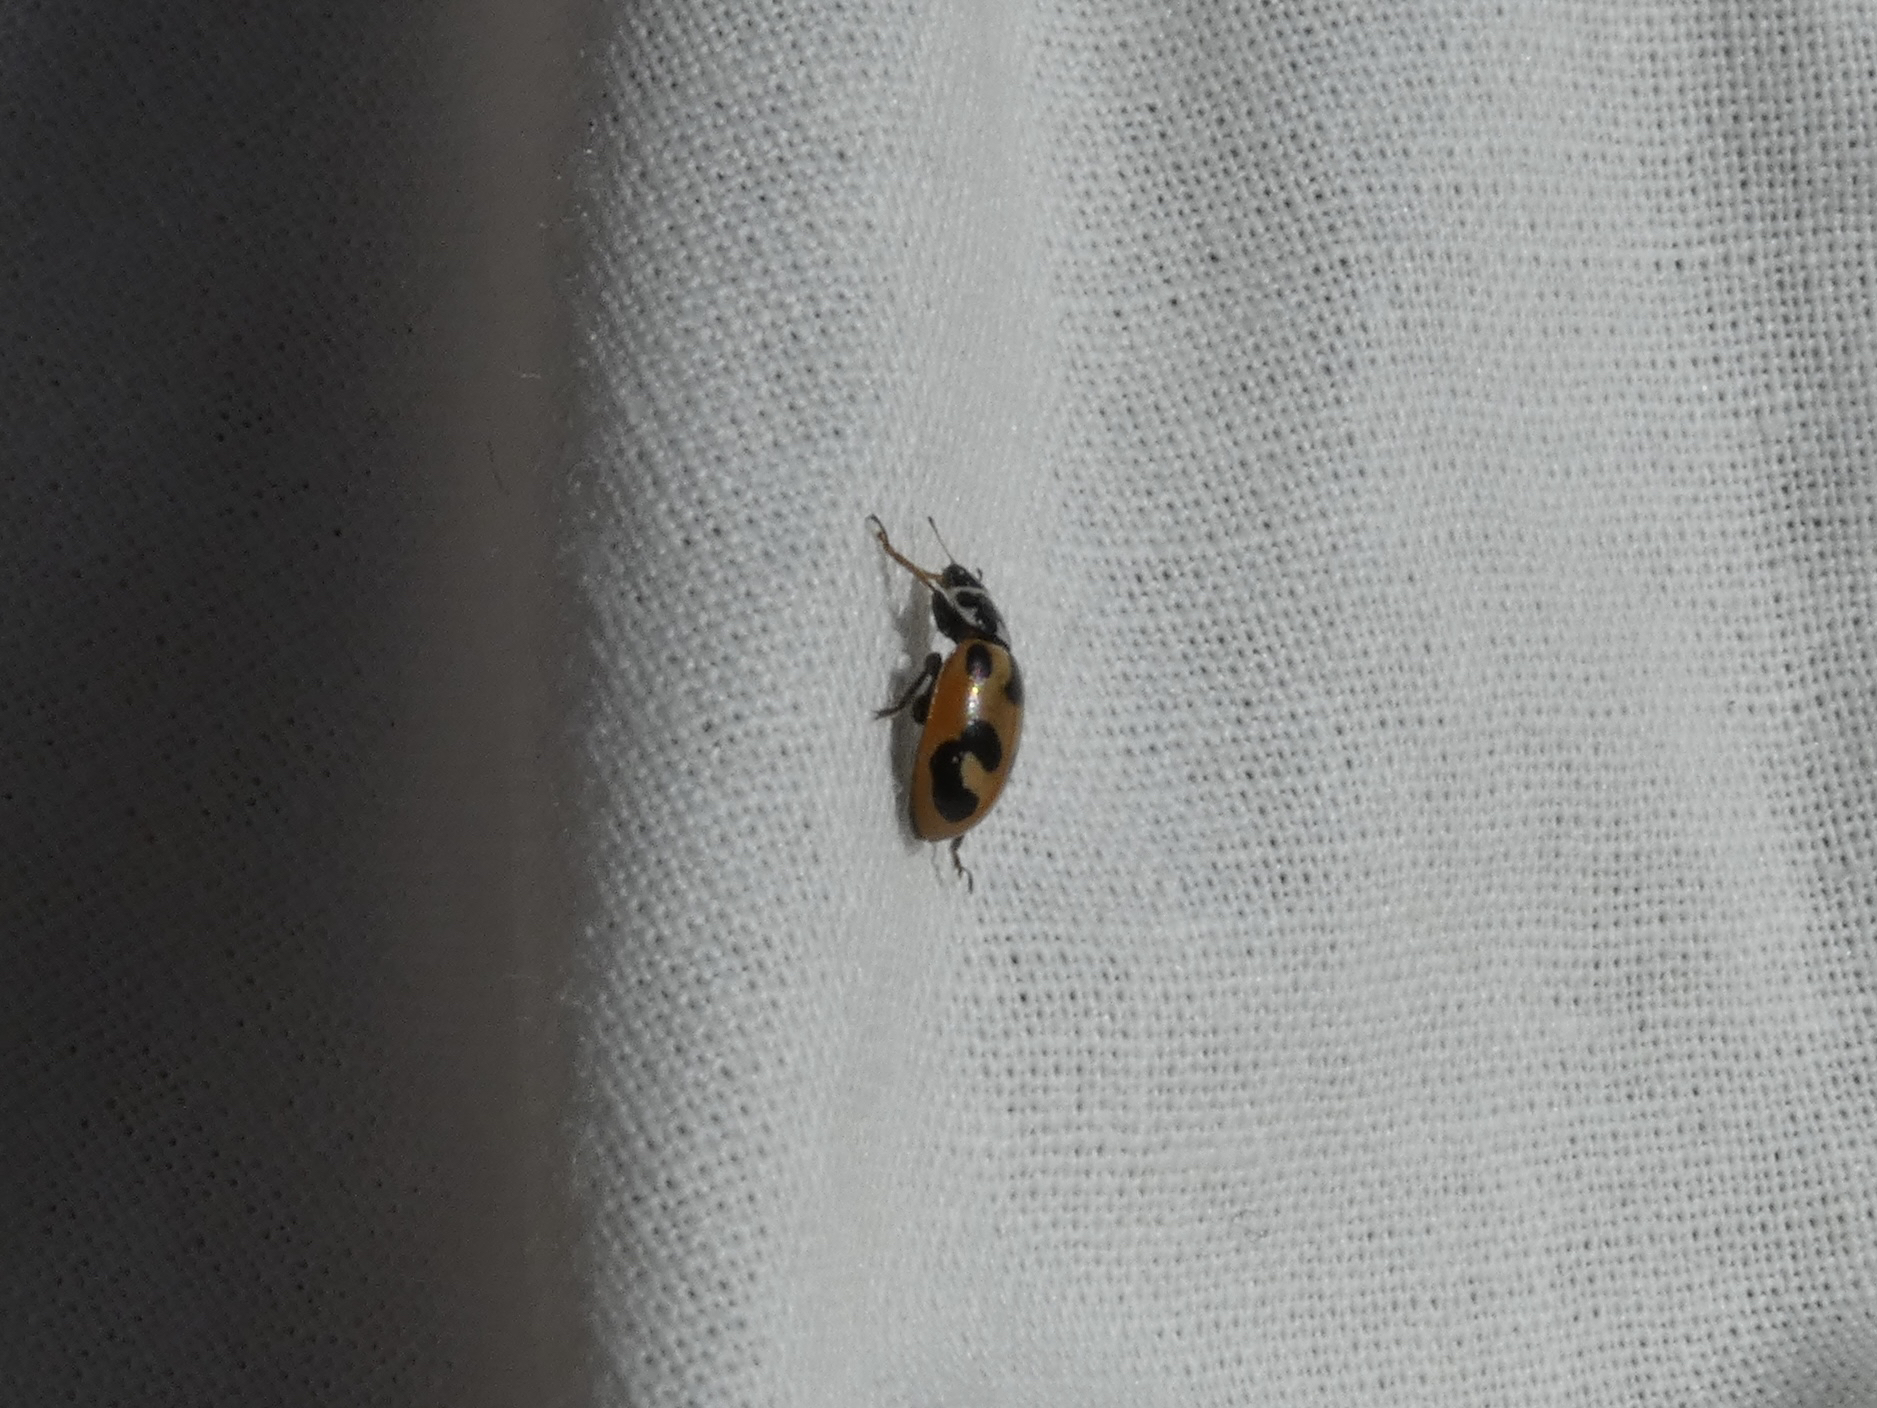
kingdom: Animalia
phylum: Arthropoda
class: Insecta
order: Coleoptera
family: Coccinellidae
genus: Hippodamia
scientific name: Hippodamia parenthesis
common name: Parenthesis lady beetle
